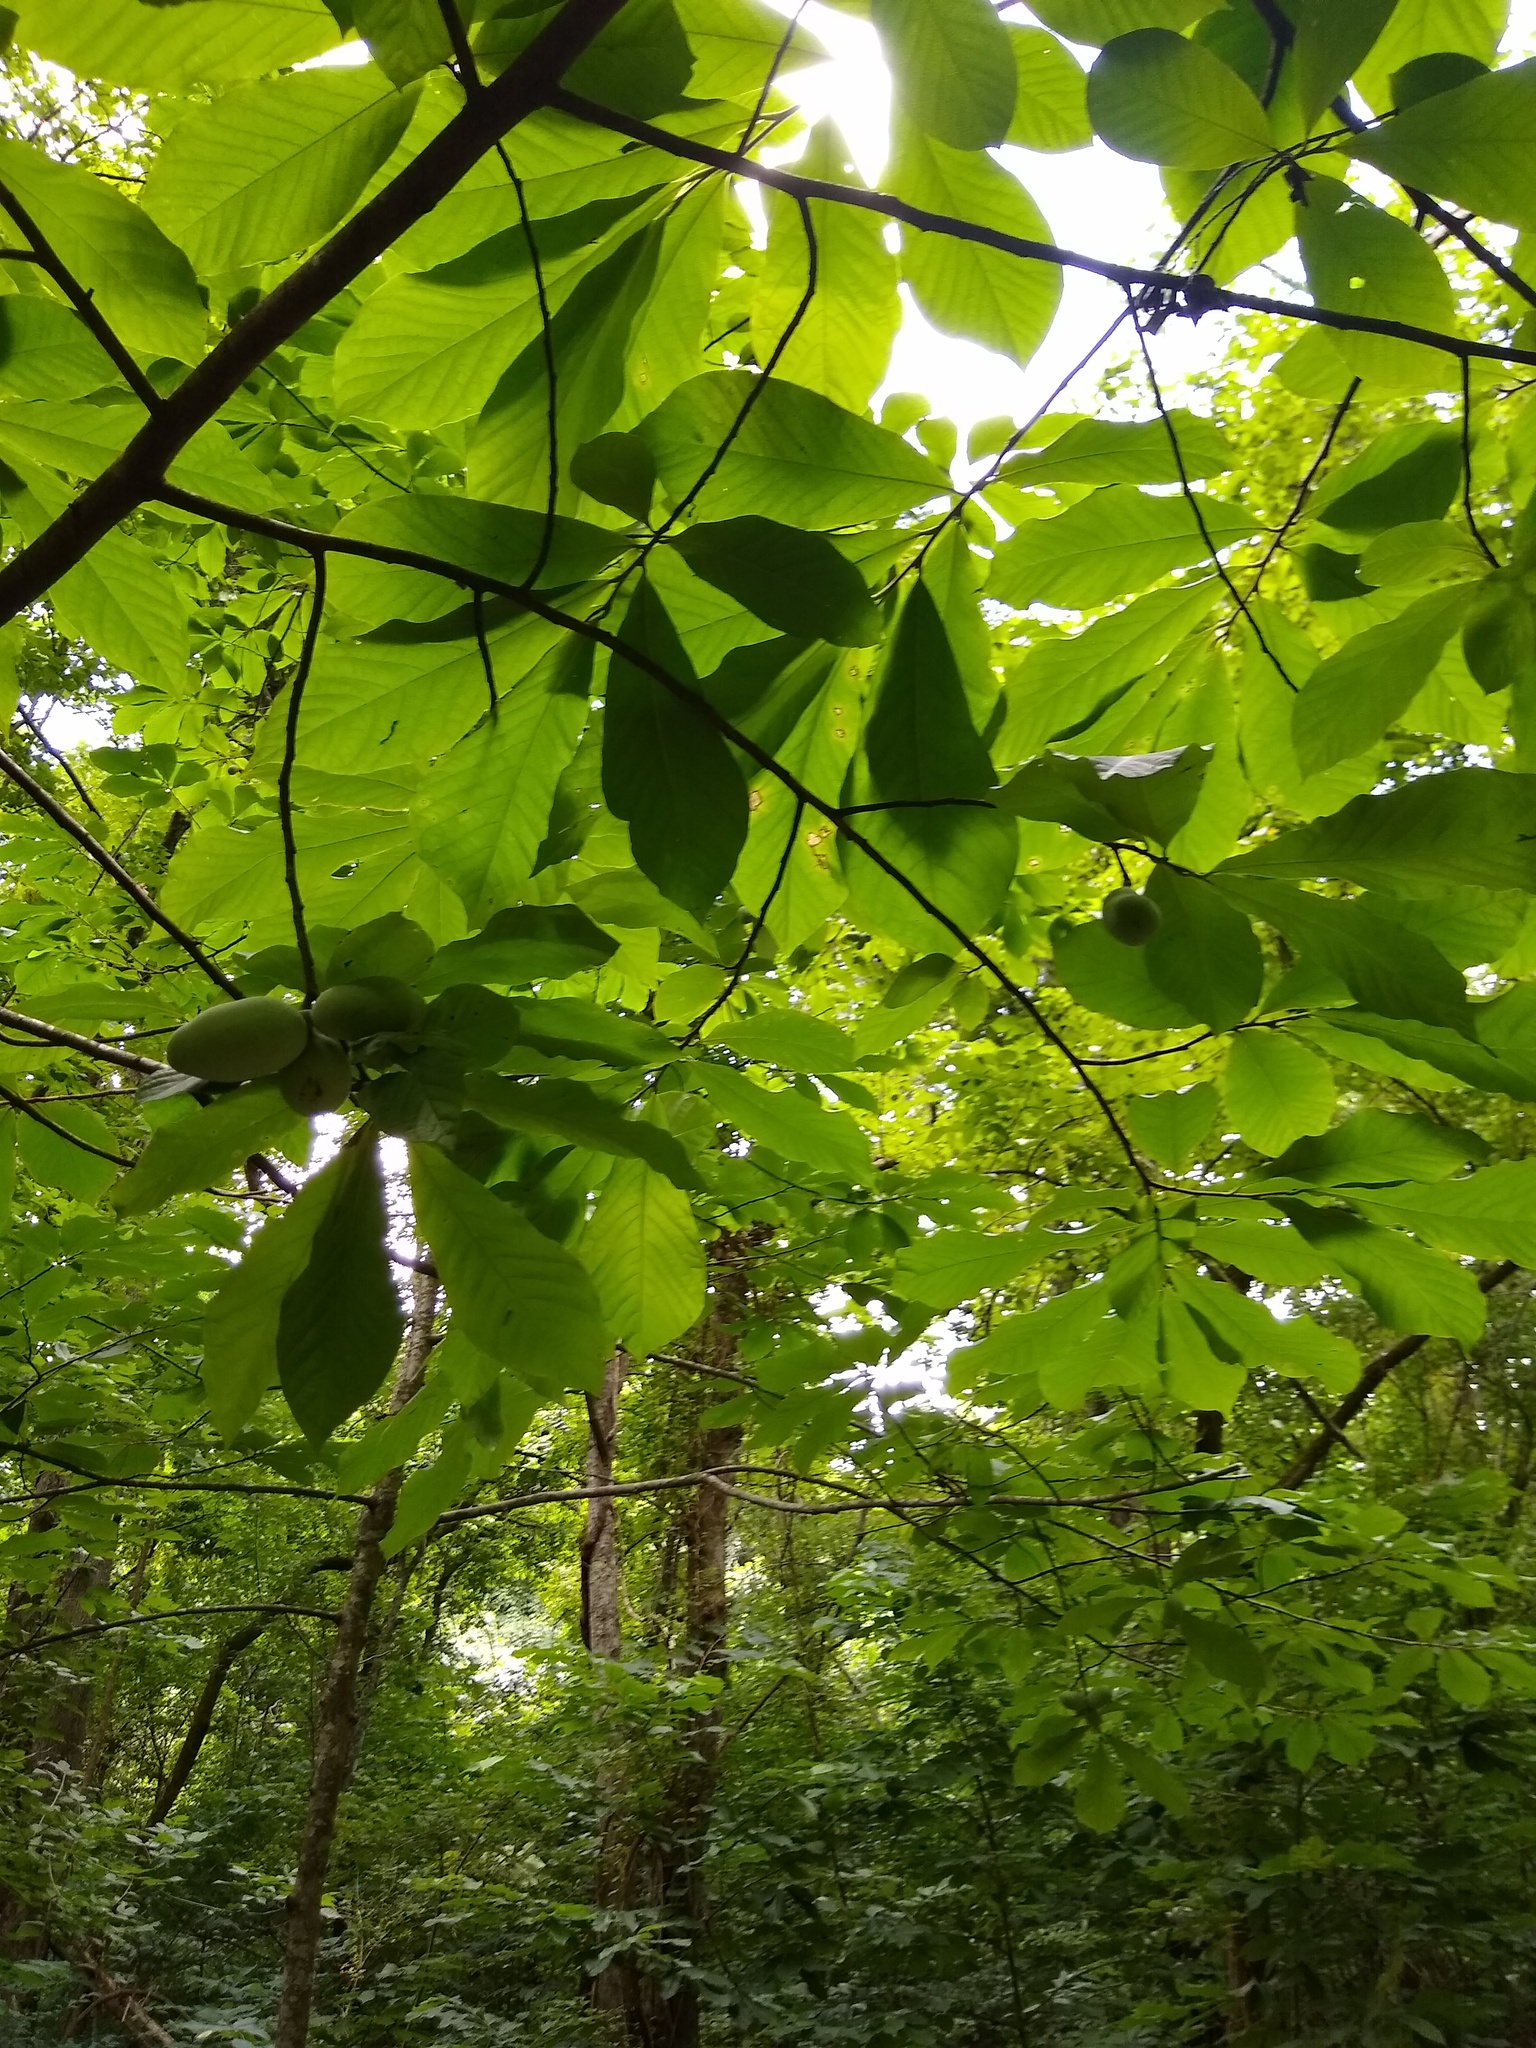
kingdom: Plantae
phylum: Tracheophyta
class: Magnoliopsida
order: Magnoliales
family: Annonaceae
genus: Asimina
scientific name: Asimina triloba
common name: Dog-banana
